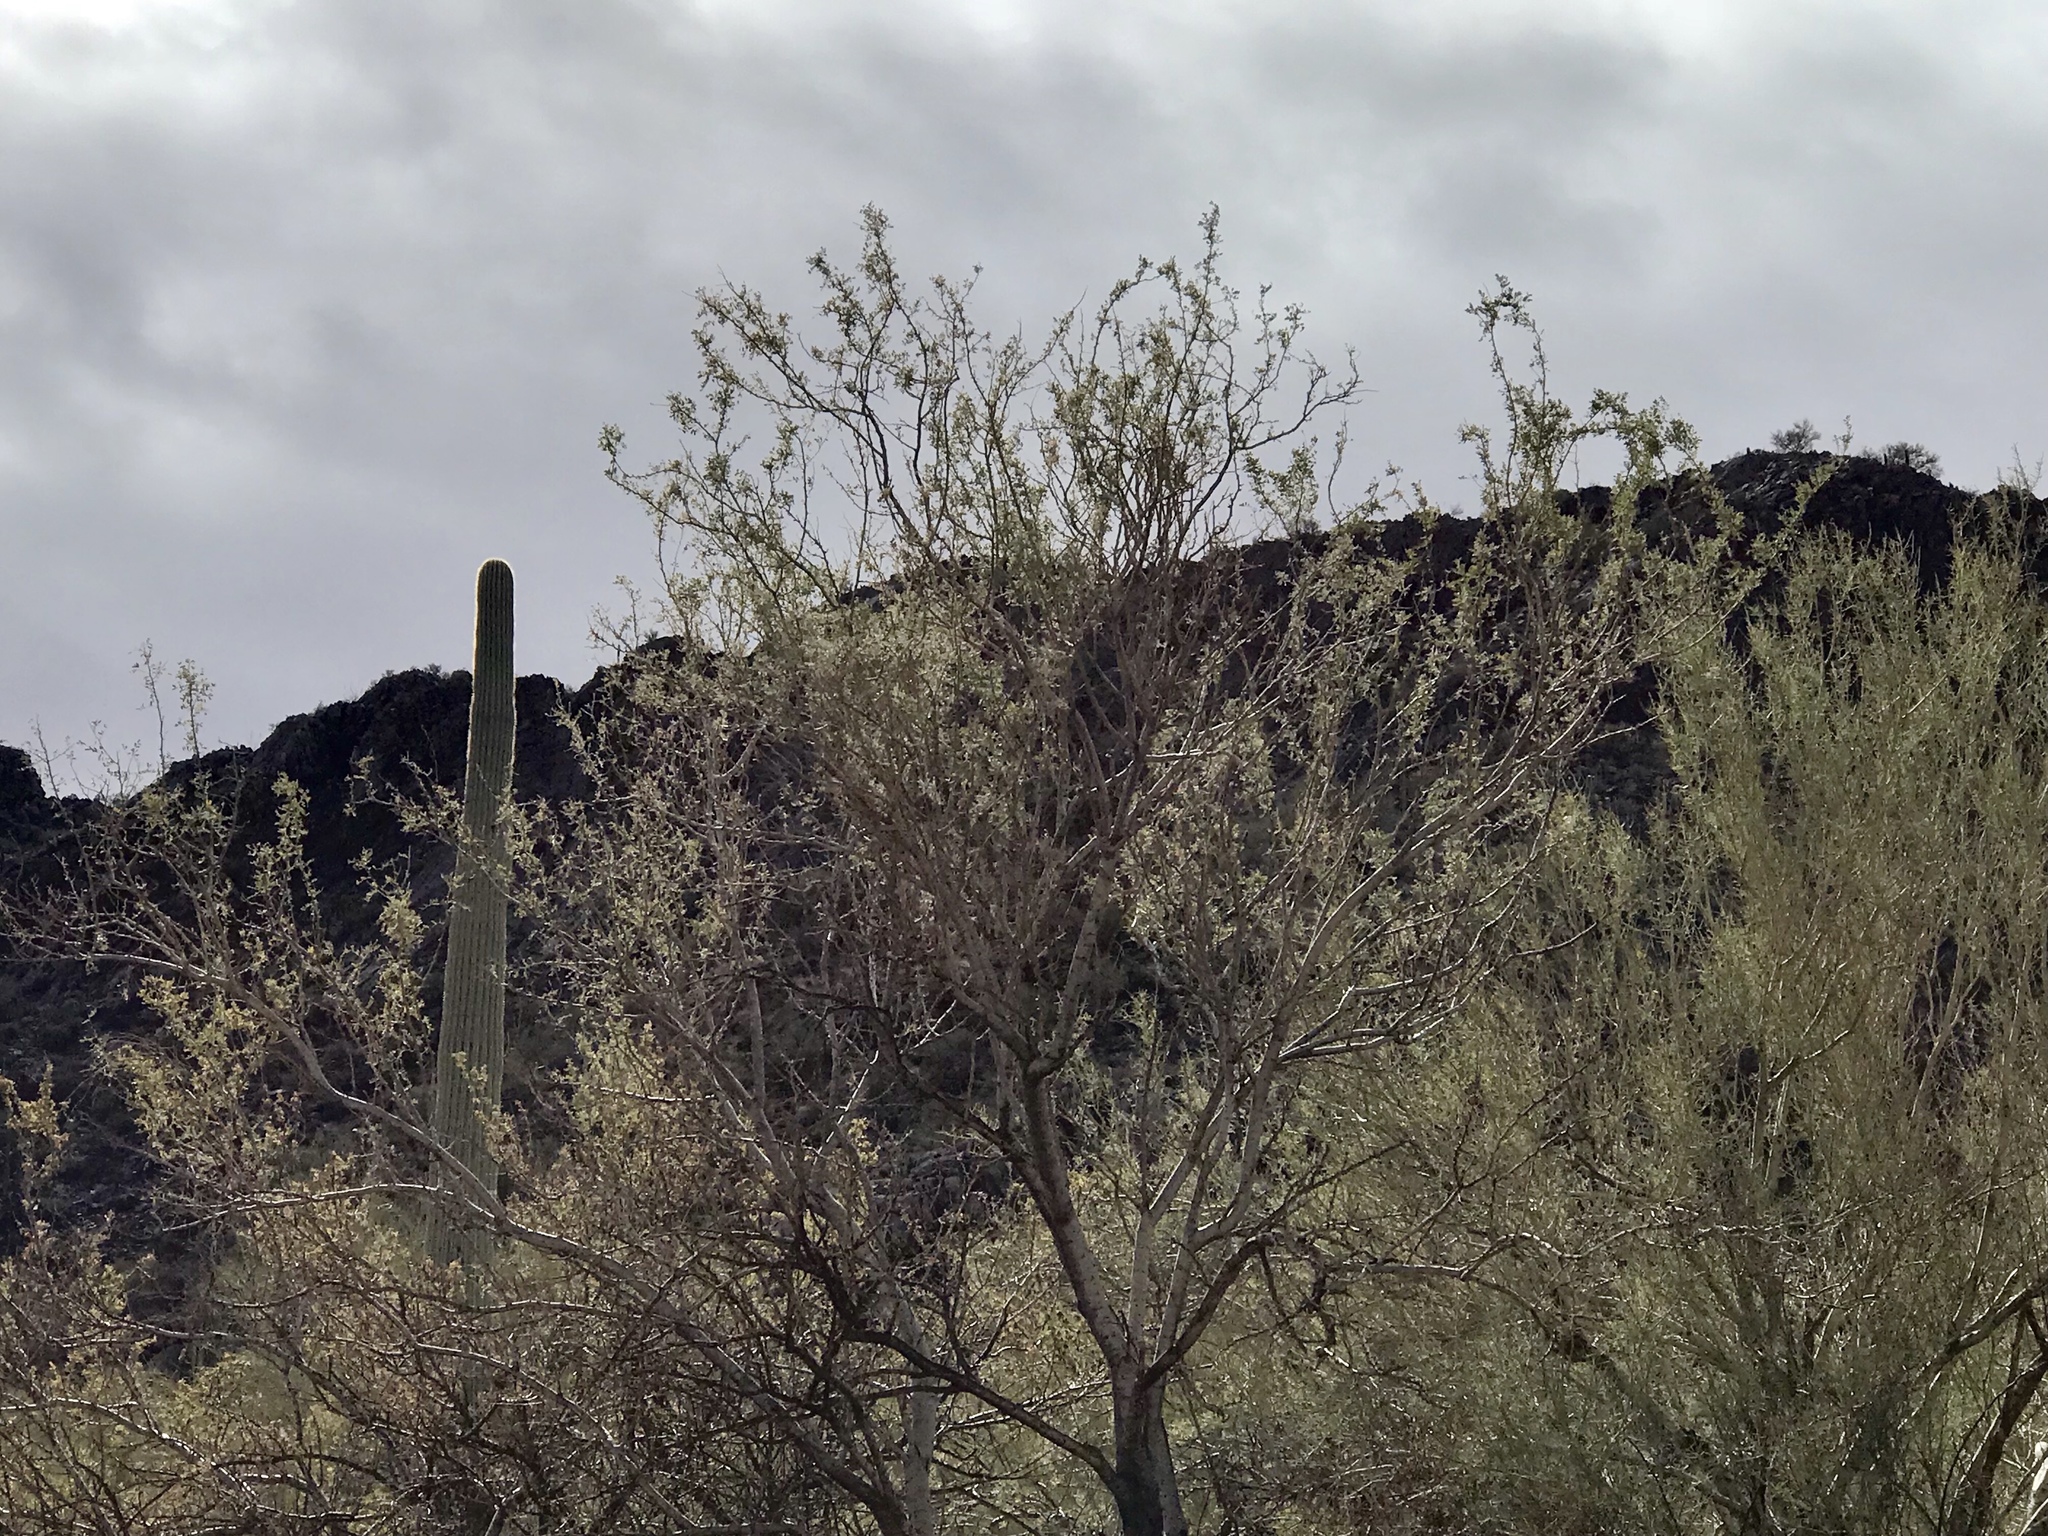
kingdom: Plantae
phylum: Tracheophyta
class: Magnoliopsida
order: Fabales
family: Fabaceae
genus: Olneya
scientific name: Olneya tesota
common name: Desert ironwood
